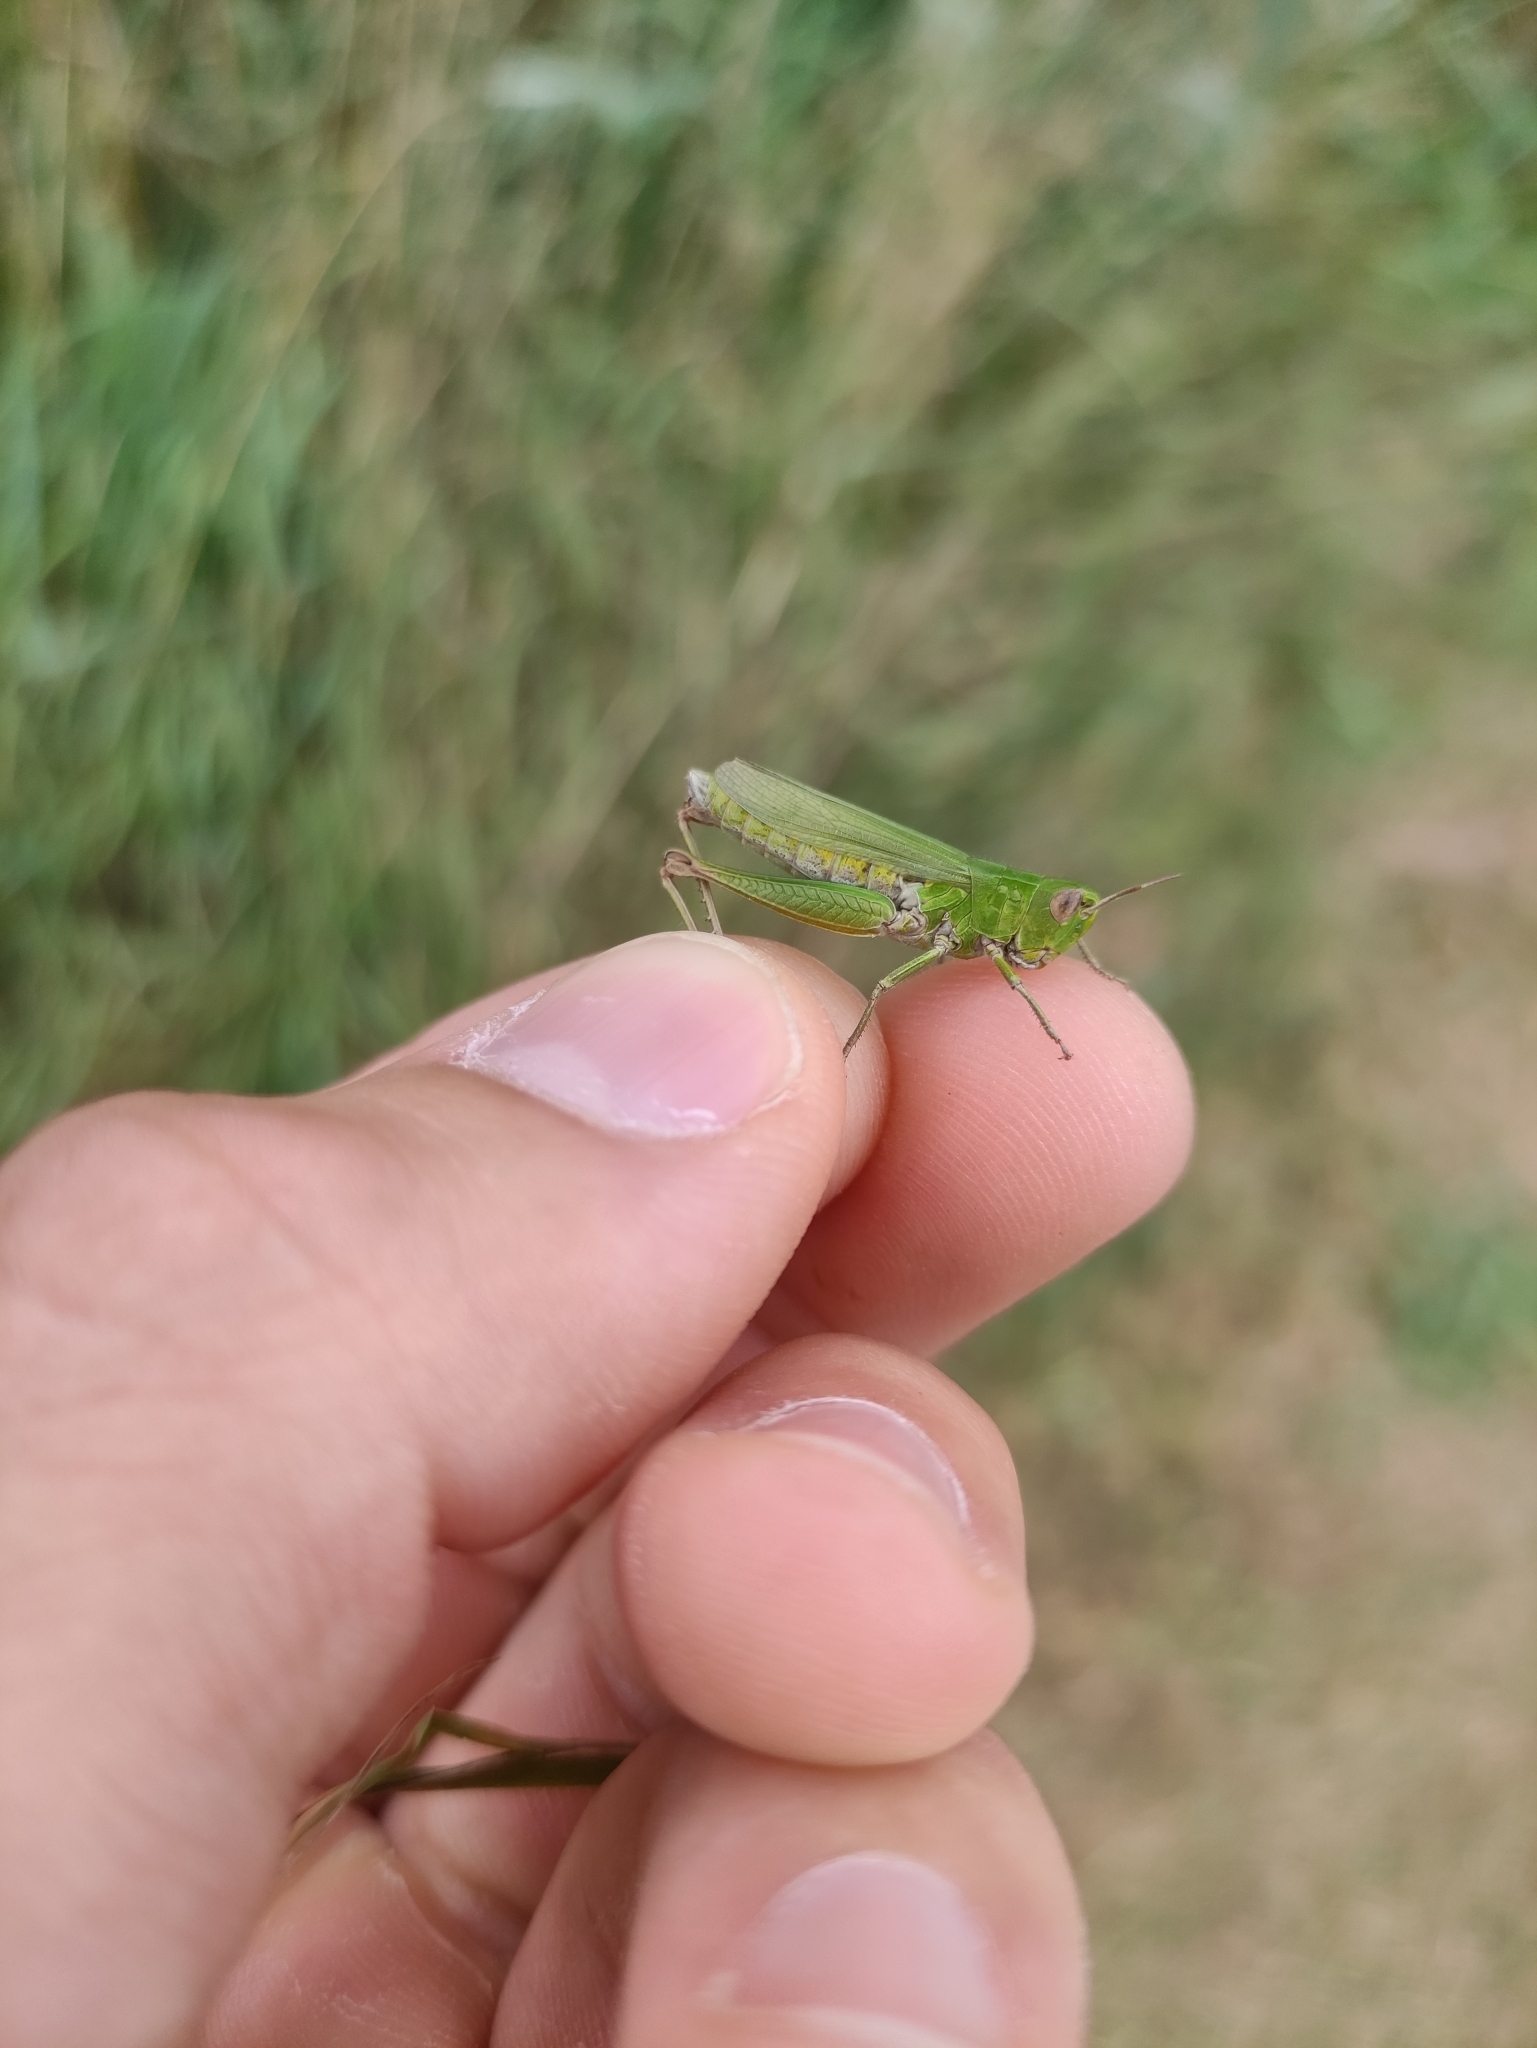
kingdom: Animalia
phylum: Arthropoda
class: Insecta
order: Orthoptera
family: Acrididae
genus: Chorthippus
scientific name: Chorthippus dorsatus
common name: Steppe grasshopper
